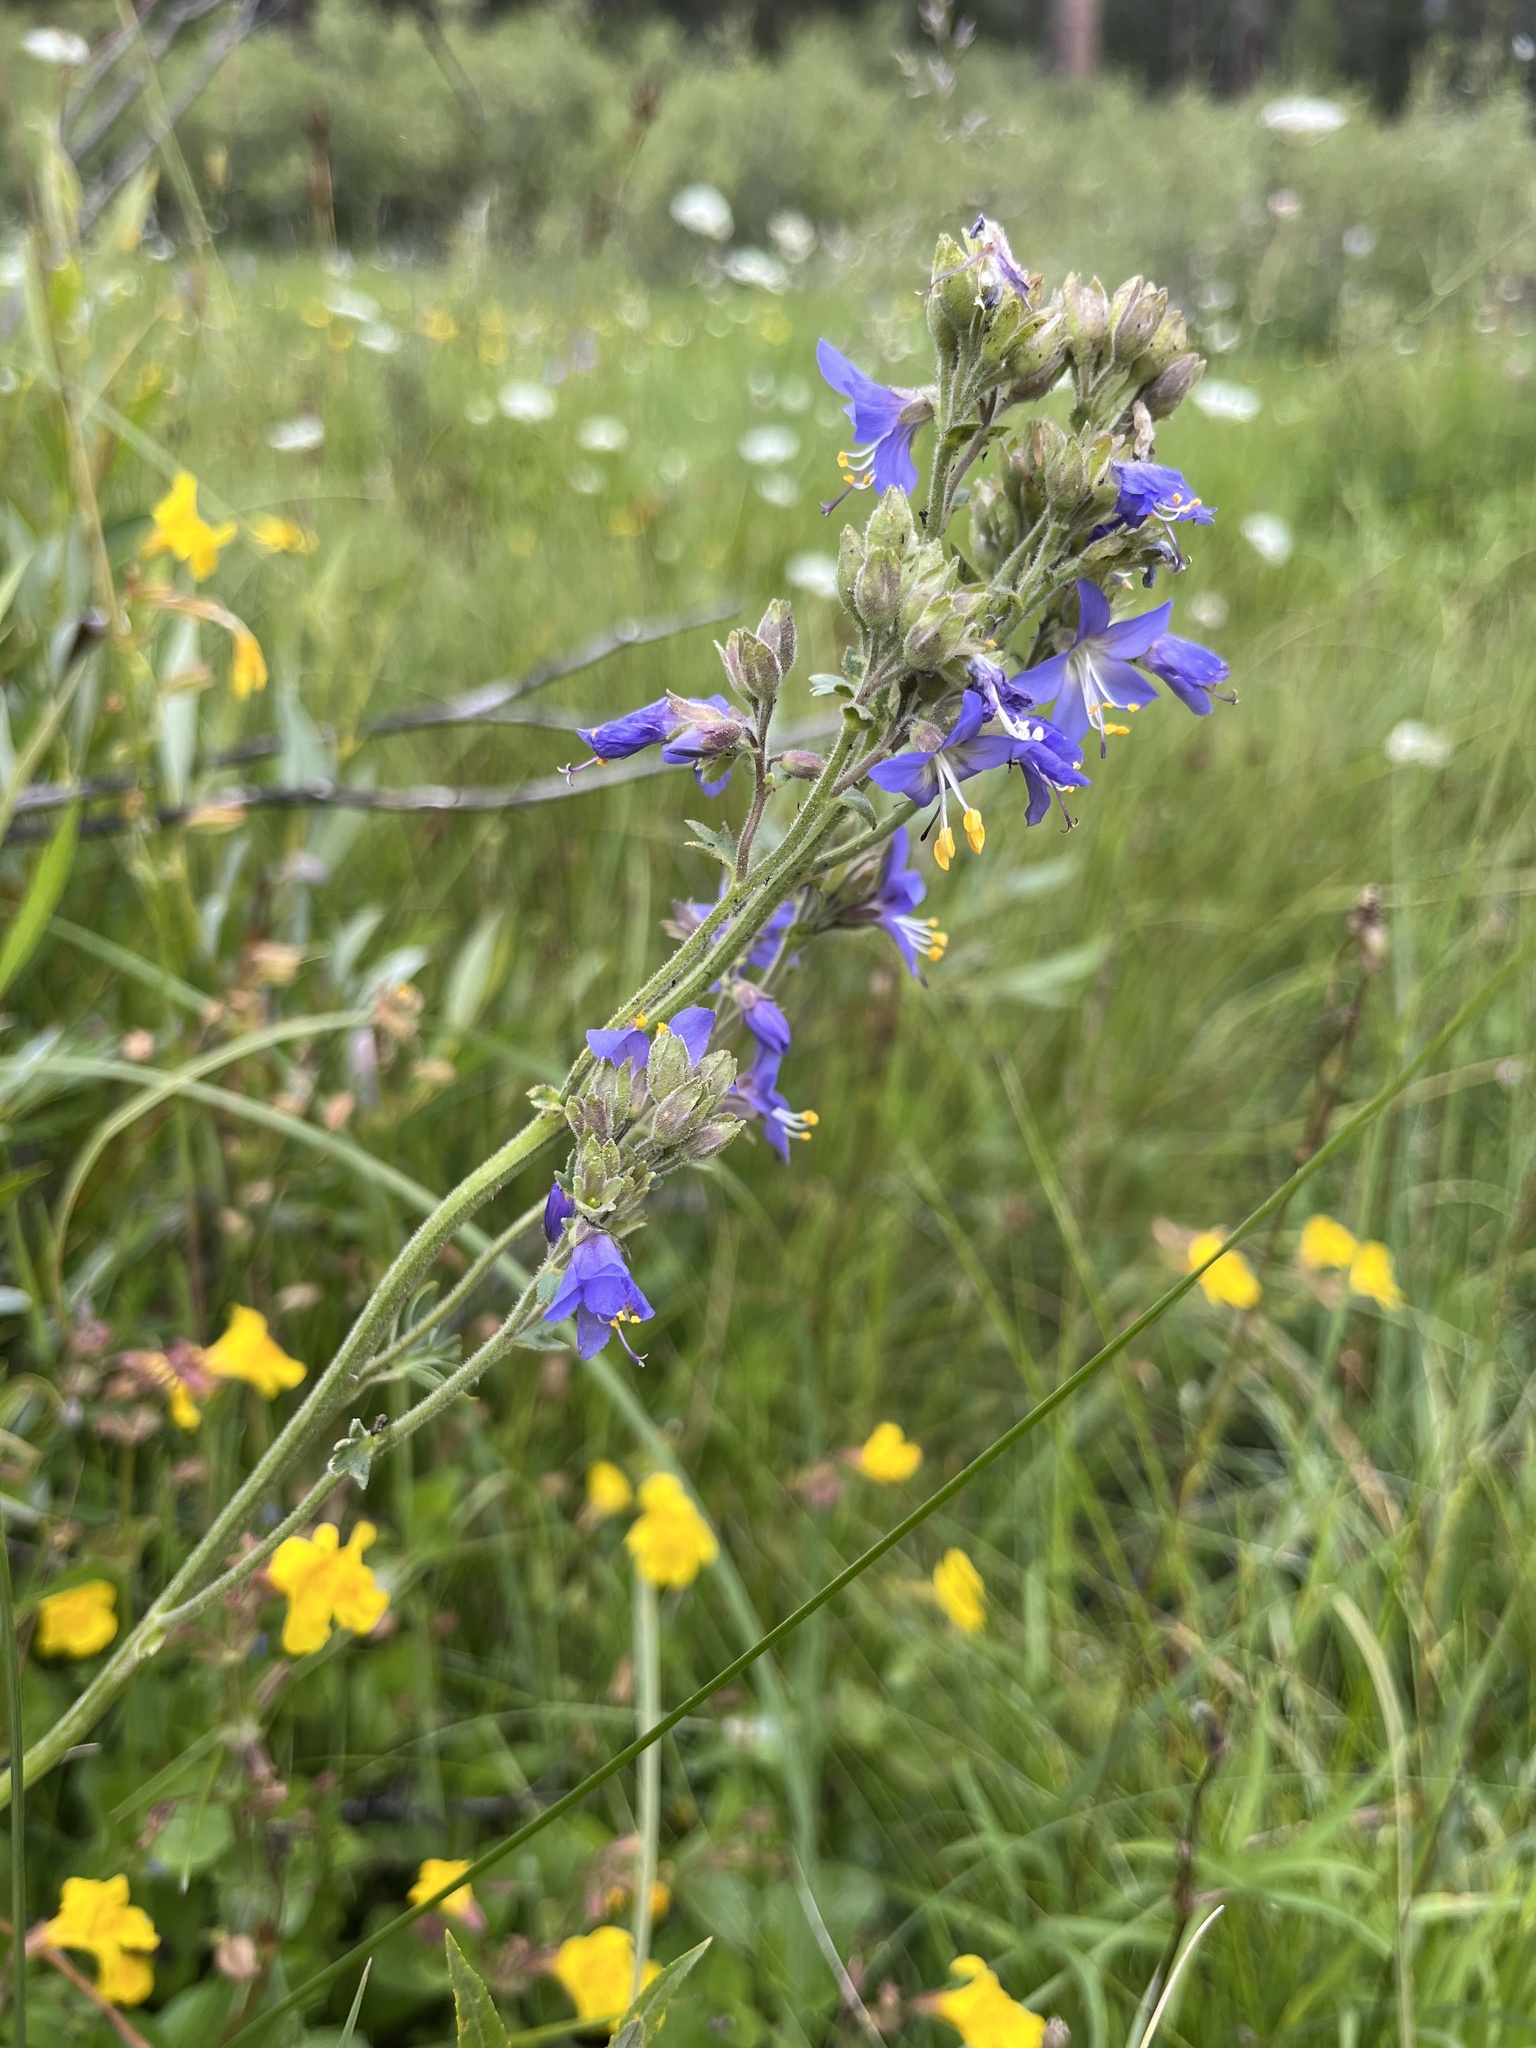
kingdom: Plantae
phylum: Tracheophyta
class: Magnoliopsida
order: Ericales
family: Polemoniaceae
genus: Polemonium
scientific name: Polemonium occidentale
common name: Western jacob's-ladder
